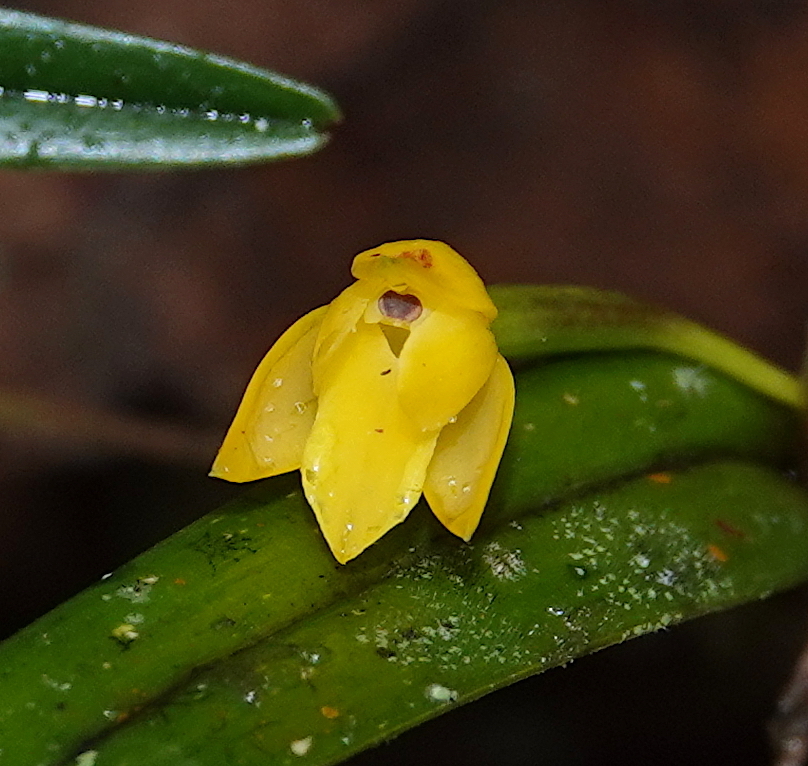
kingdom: Plantae
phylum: Tracheophyta
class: Liliopsida
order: Asparagales
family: Orchidaceae
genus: Scaphyglottis
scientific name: Scaphyglottis aurea
